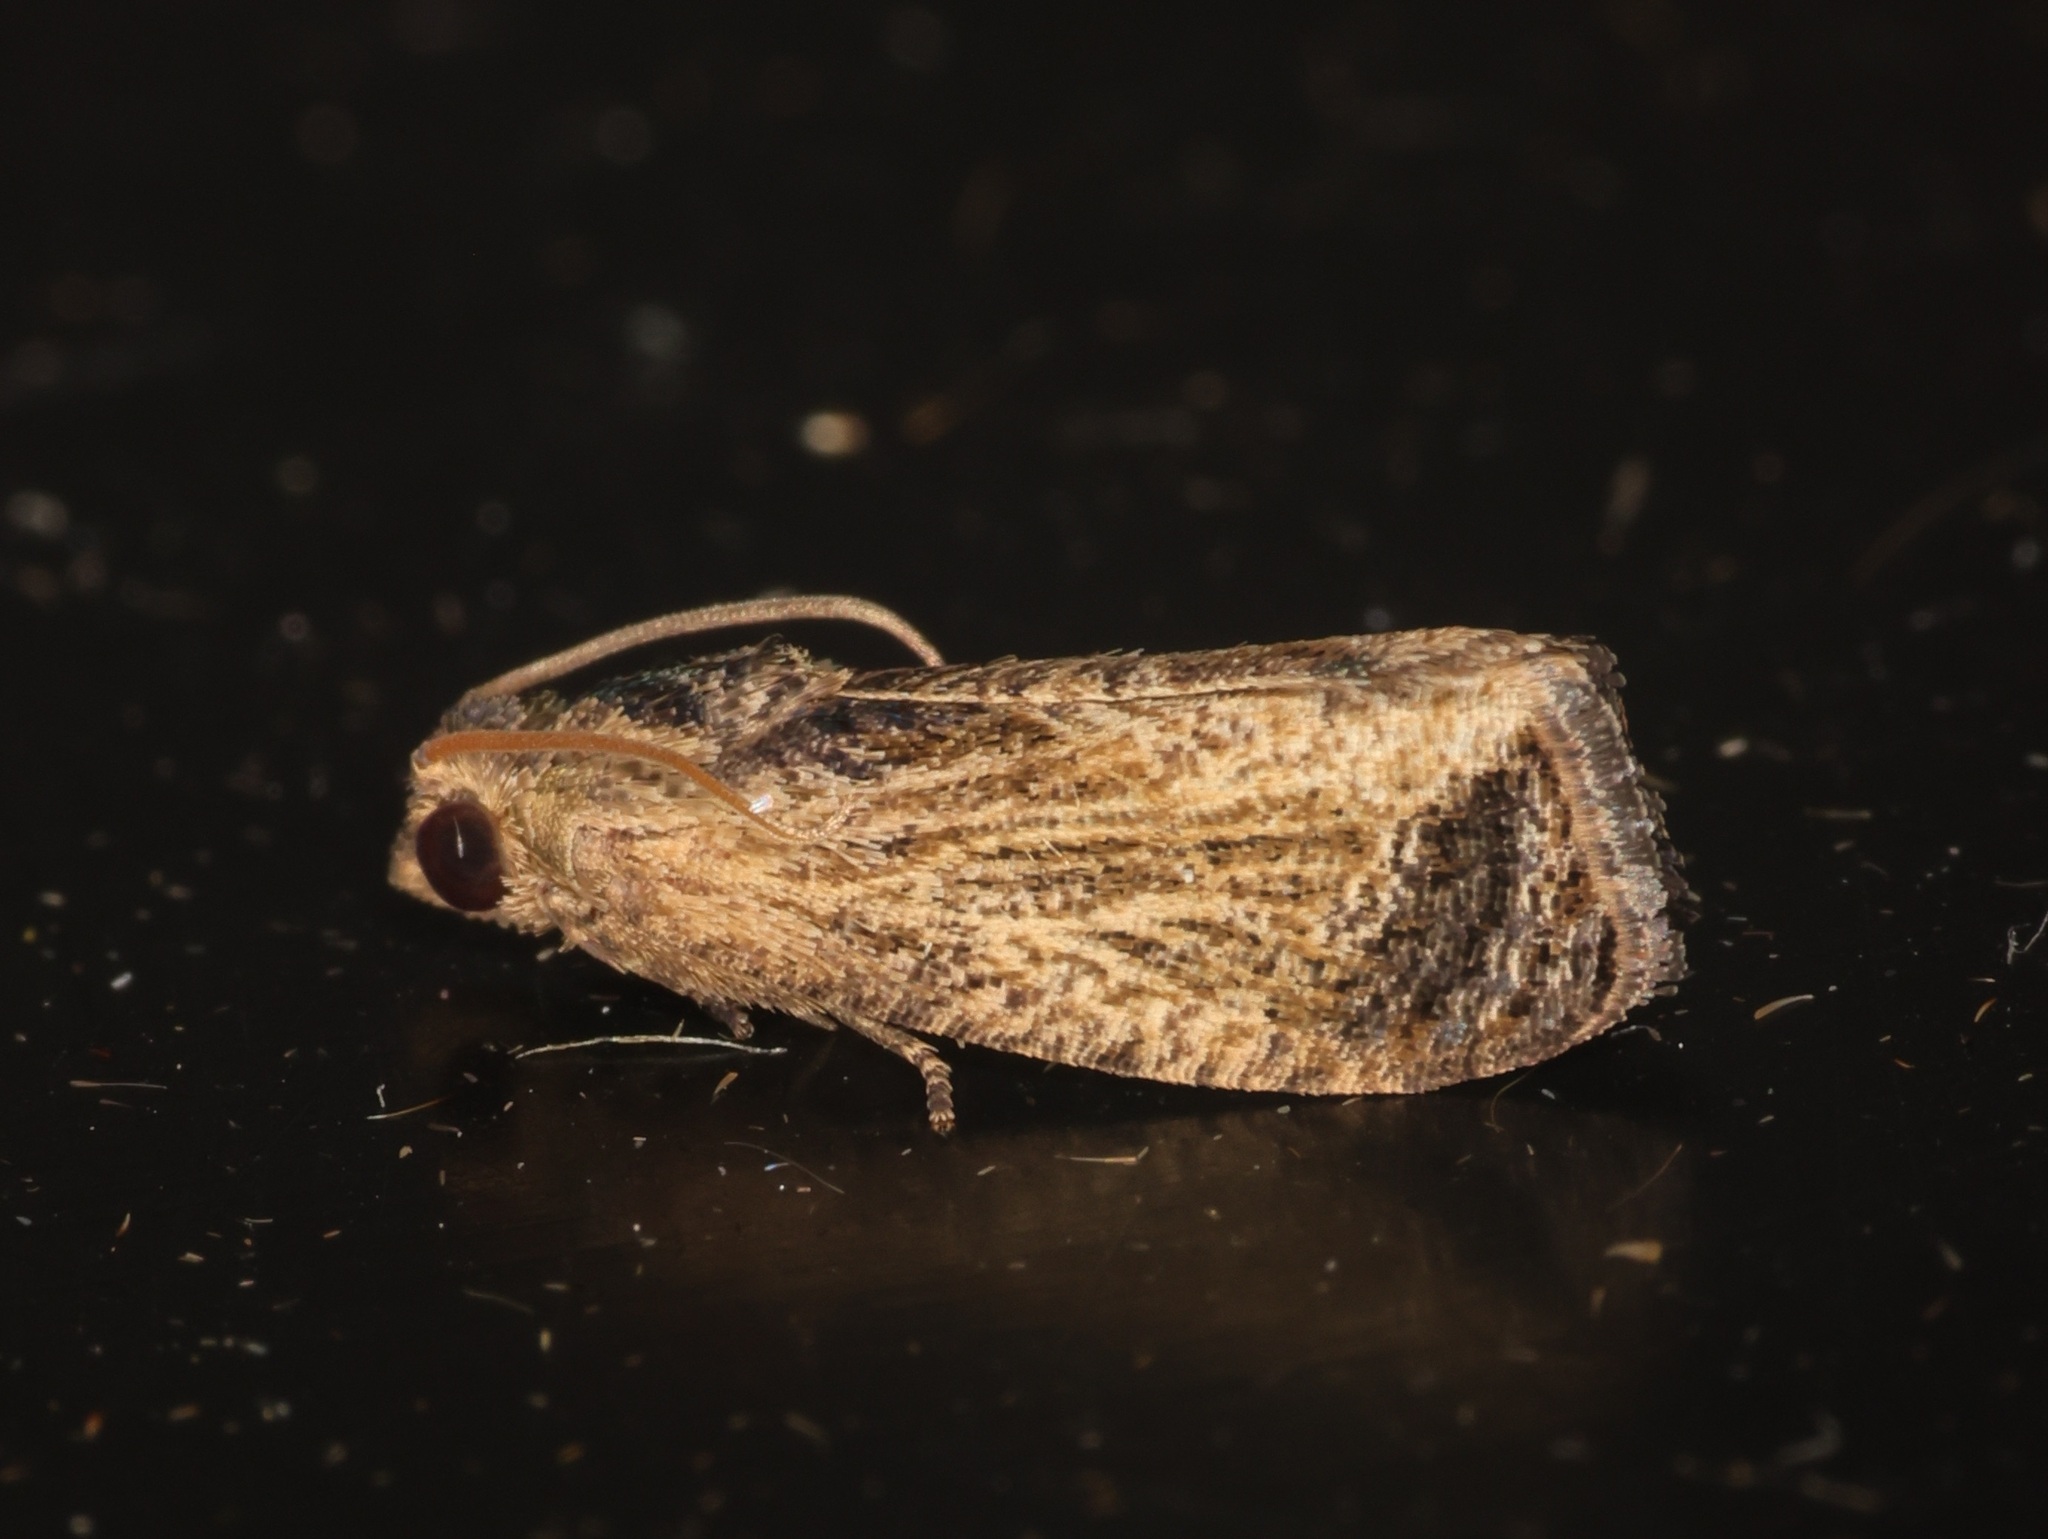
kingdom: Animalia
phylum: Arthropoda
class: Insecta
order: Lepidoptera
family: Tortricidae
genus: Cryptophlebia
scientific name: Cryptophlebia repletana
